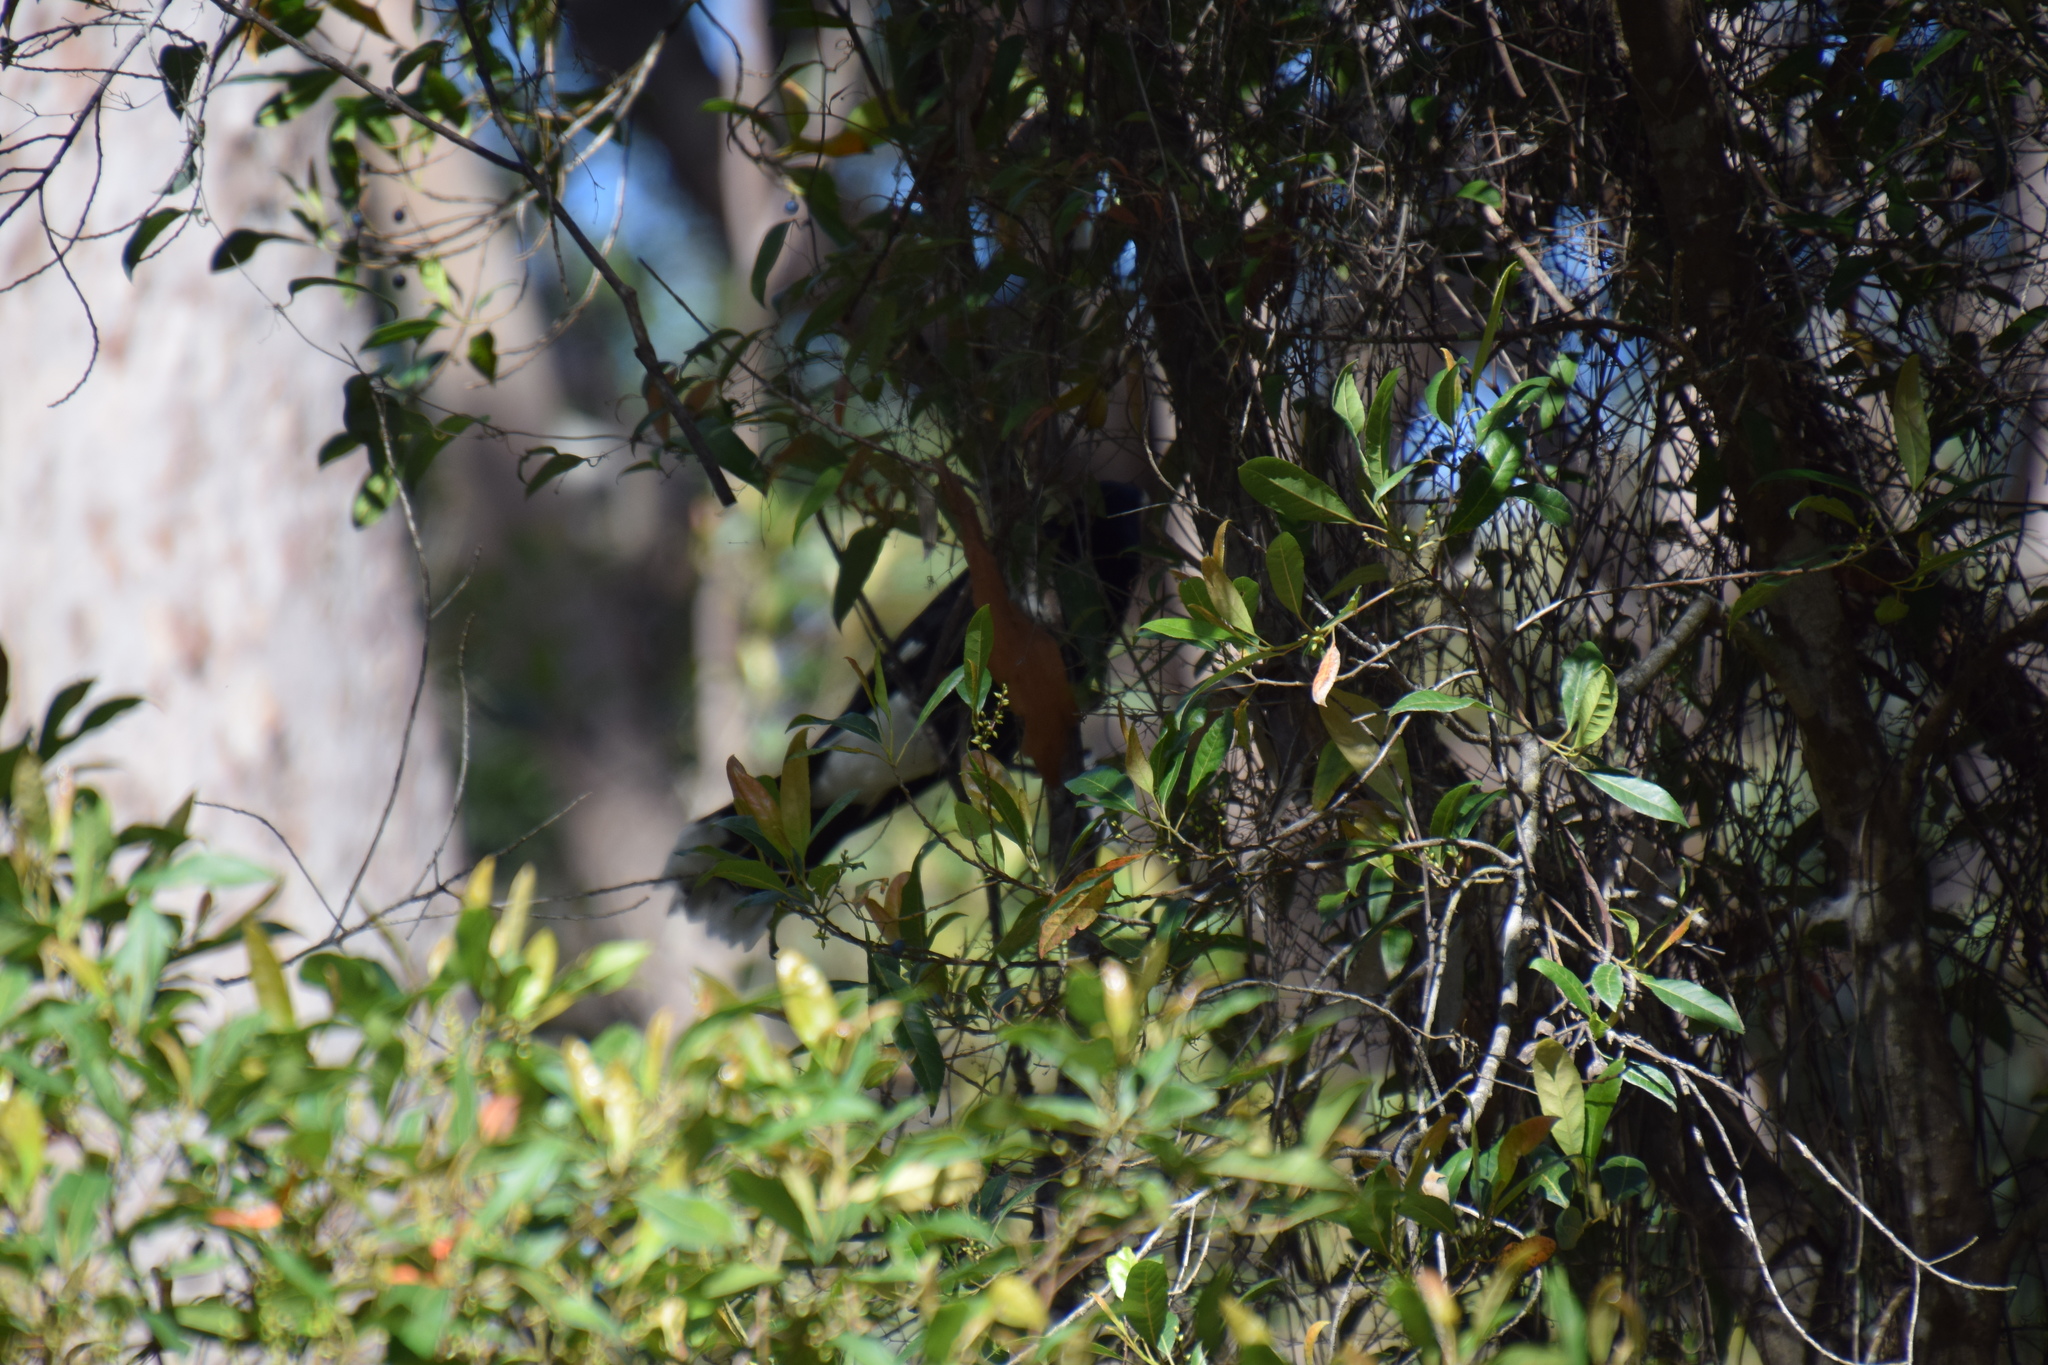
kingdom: Animalia
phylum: Chordata
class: Aves
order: Passeriformes
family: Cracticidae
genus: Strepera
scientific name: Strepera graculina
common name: Pied currawong
